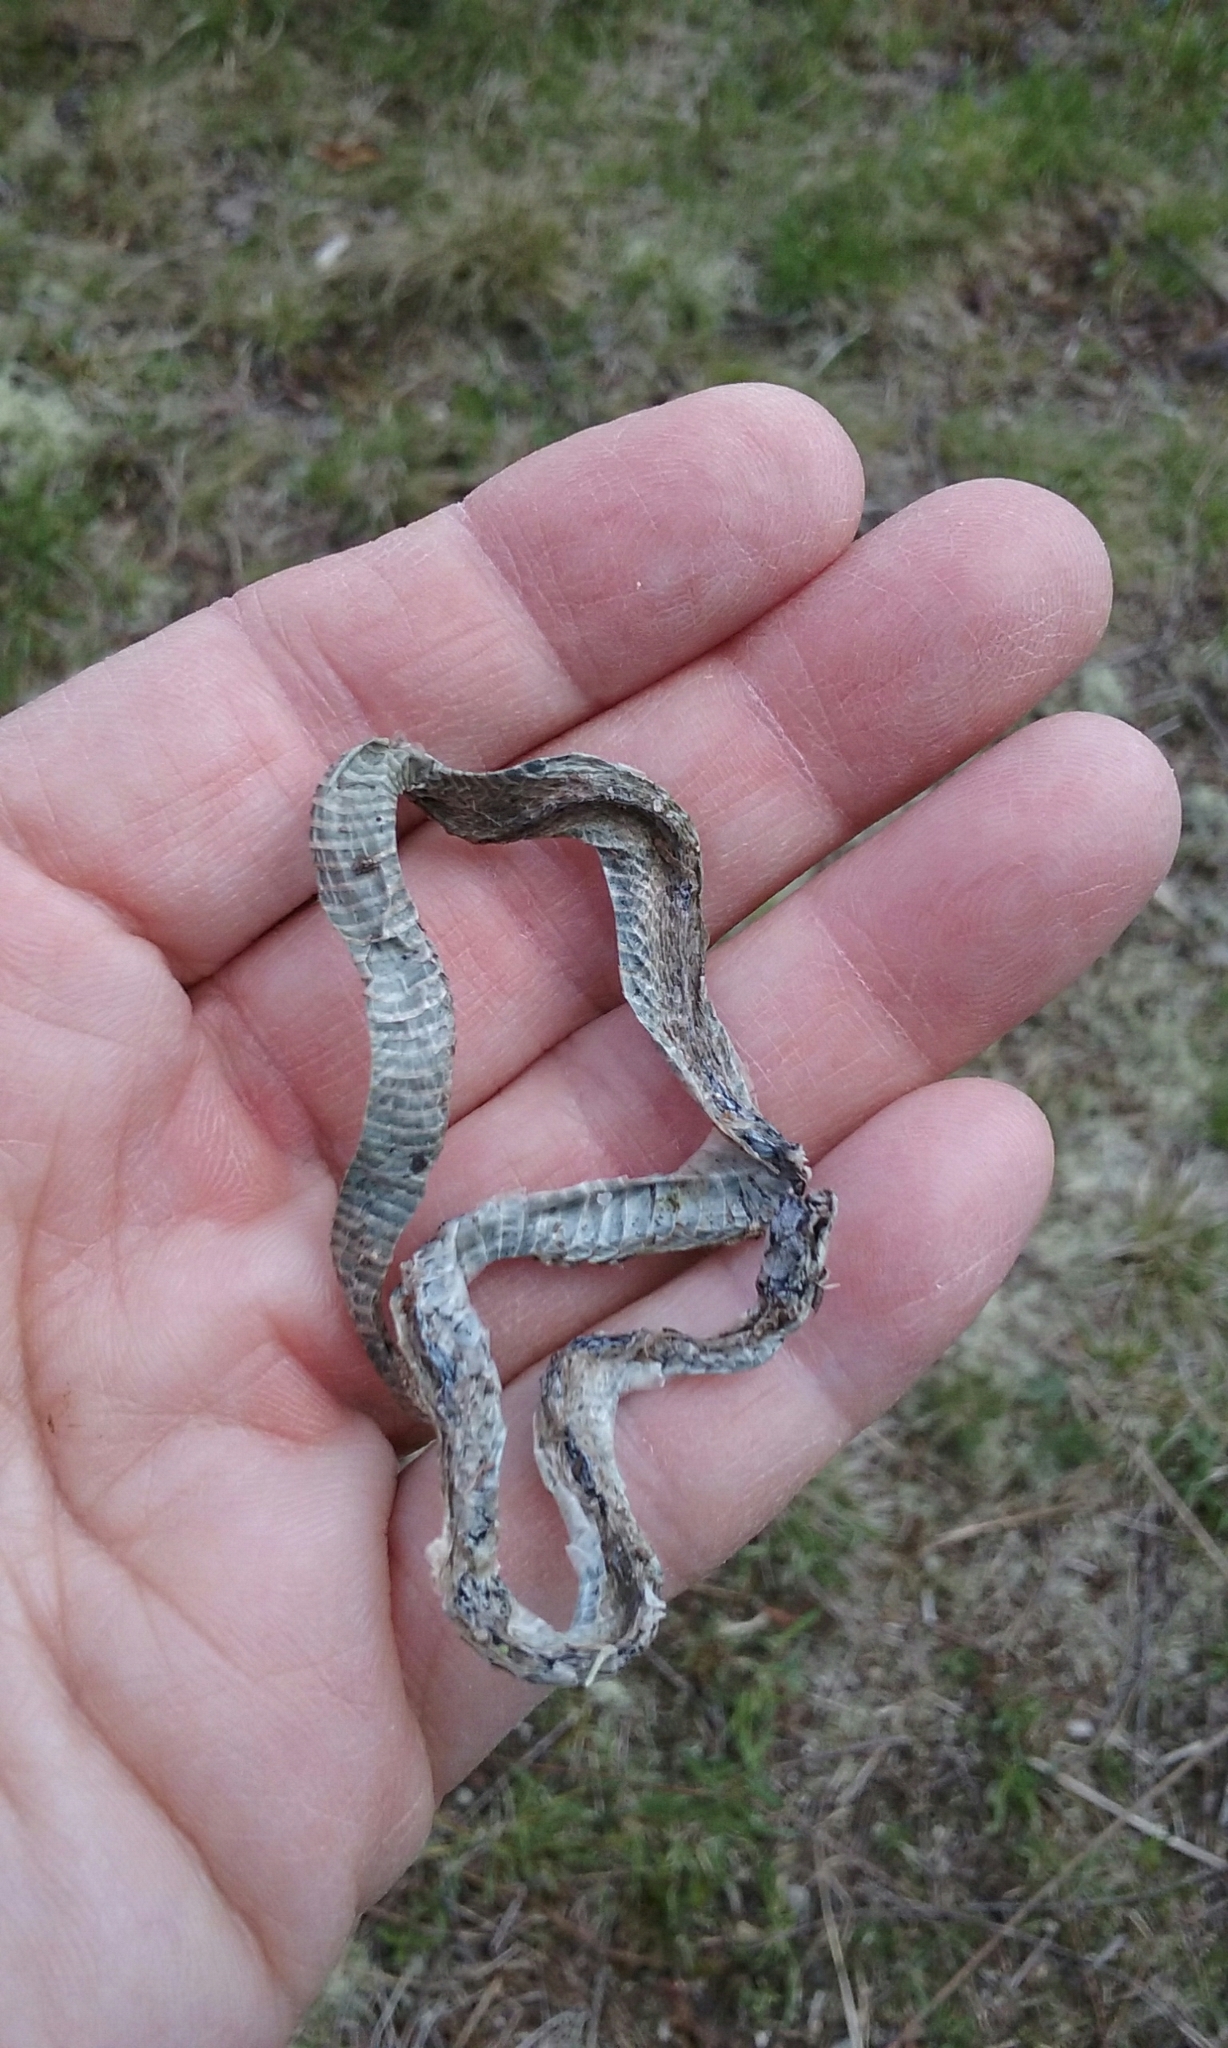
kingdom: Animalia
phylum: Chordata
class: Squamata
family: Colubridae
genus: Storeria
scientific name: Storeria dekayi
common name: (dekay’s) brown snake
